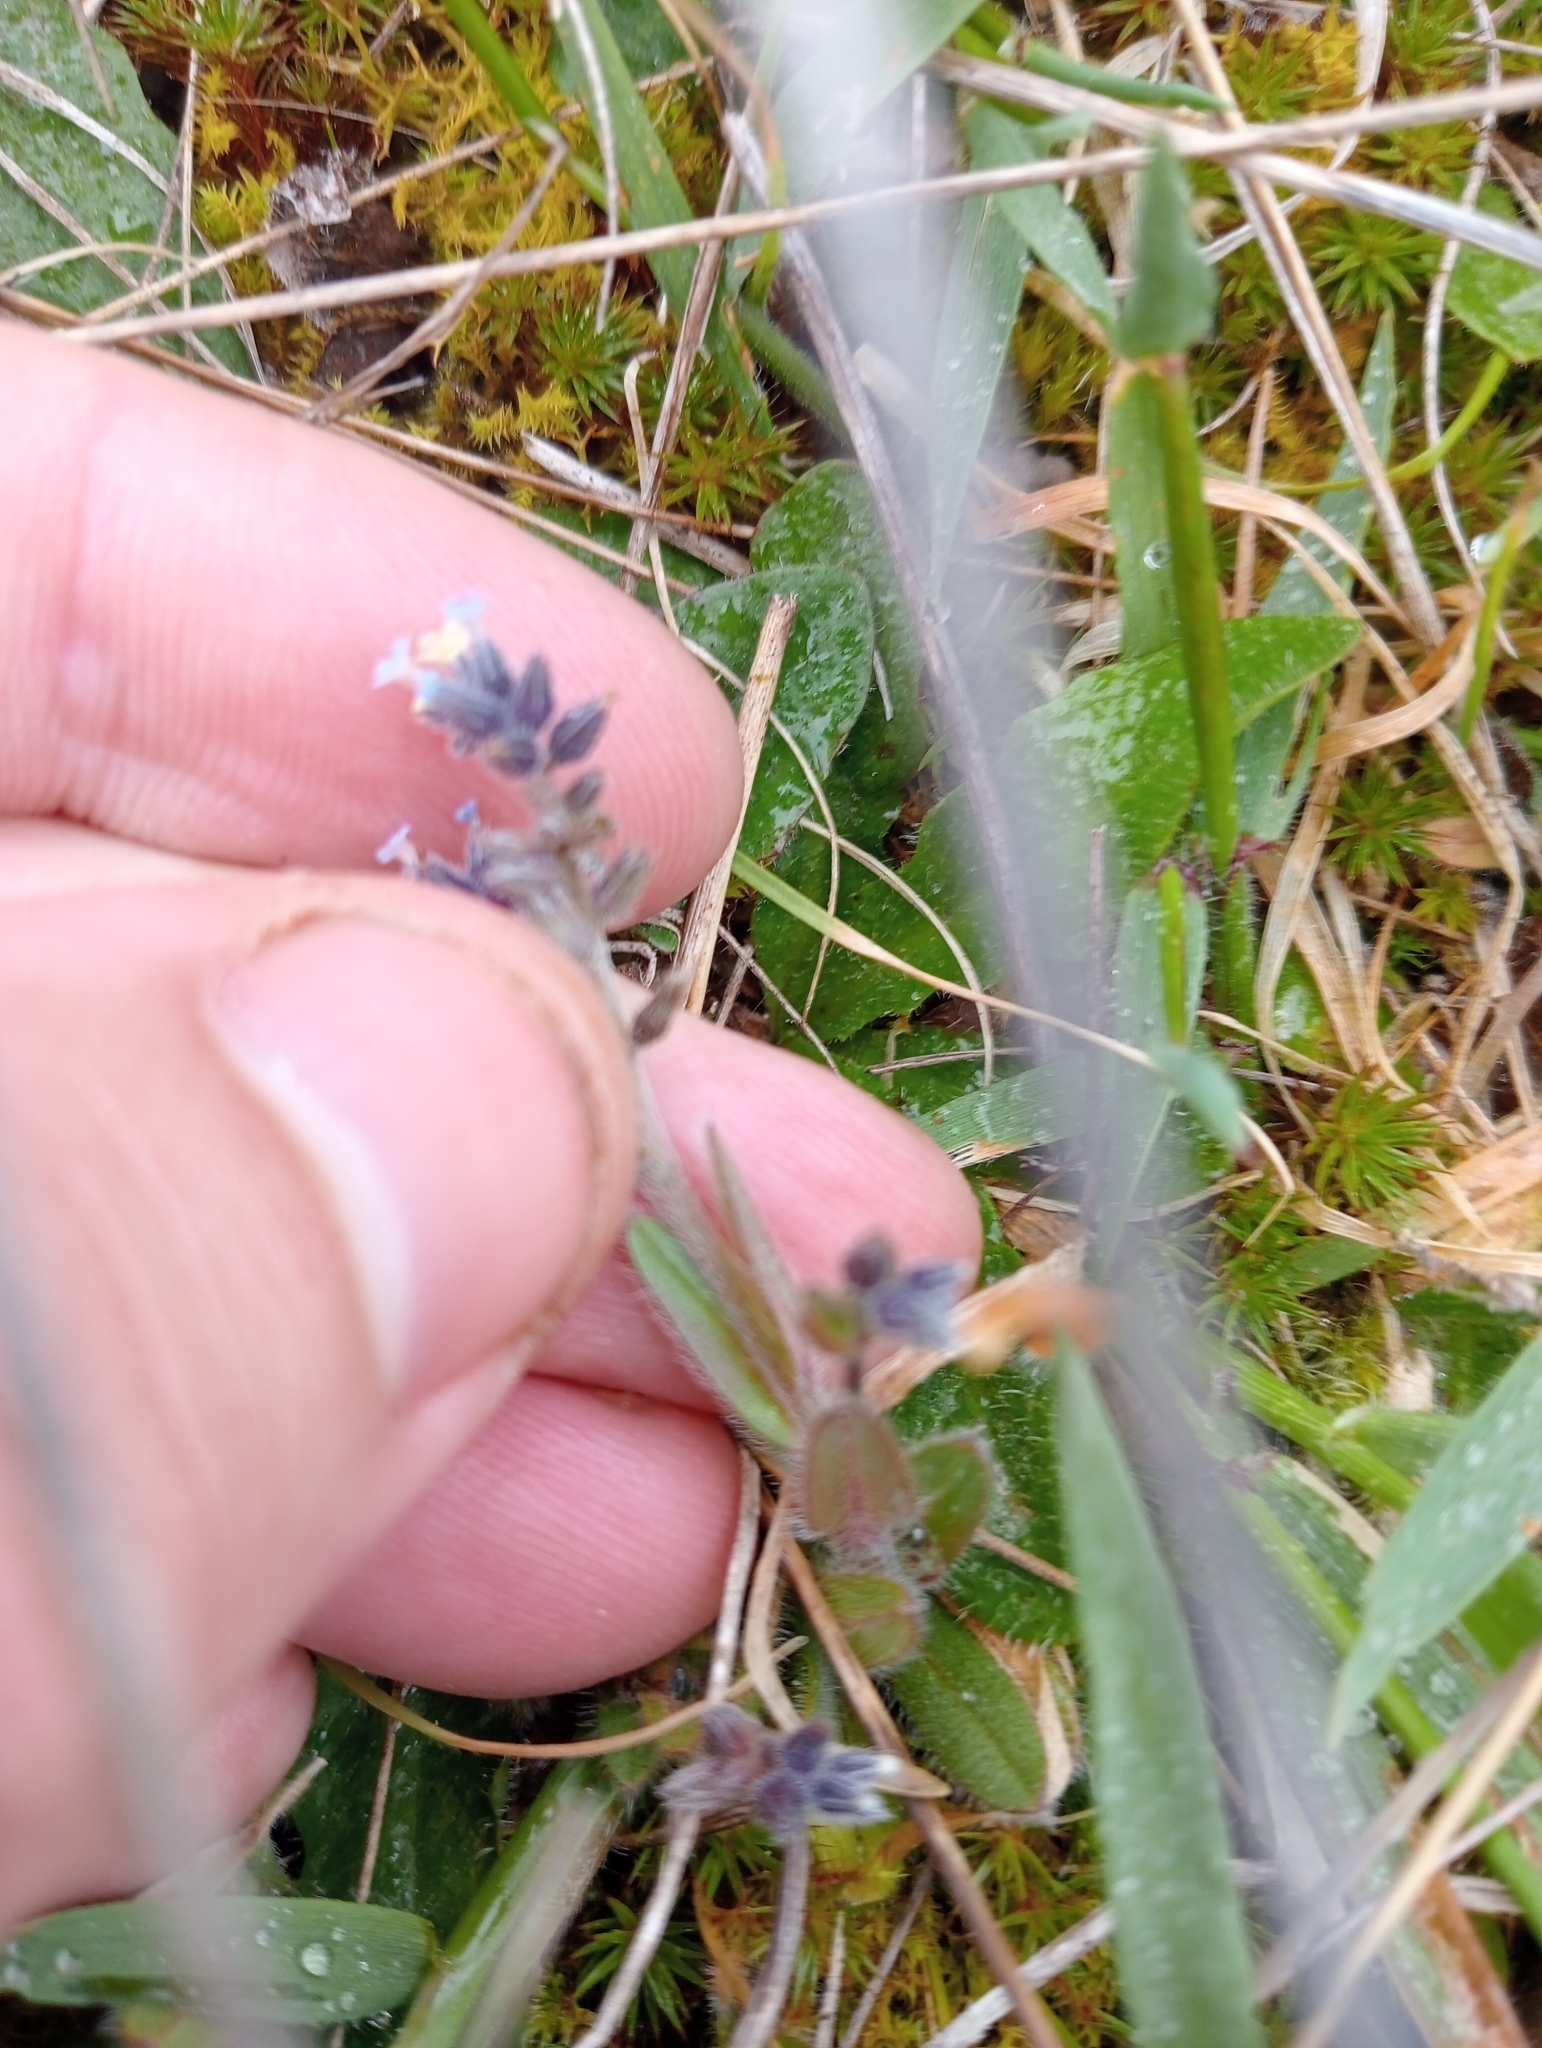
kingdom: Plantae
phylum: Tracheophyta
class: Magnoliopsida
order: Boraginales
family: Boraginaceae
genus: Myosotis
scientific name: Myosotis discolor
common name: Changing forget-me-not
